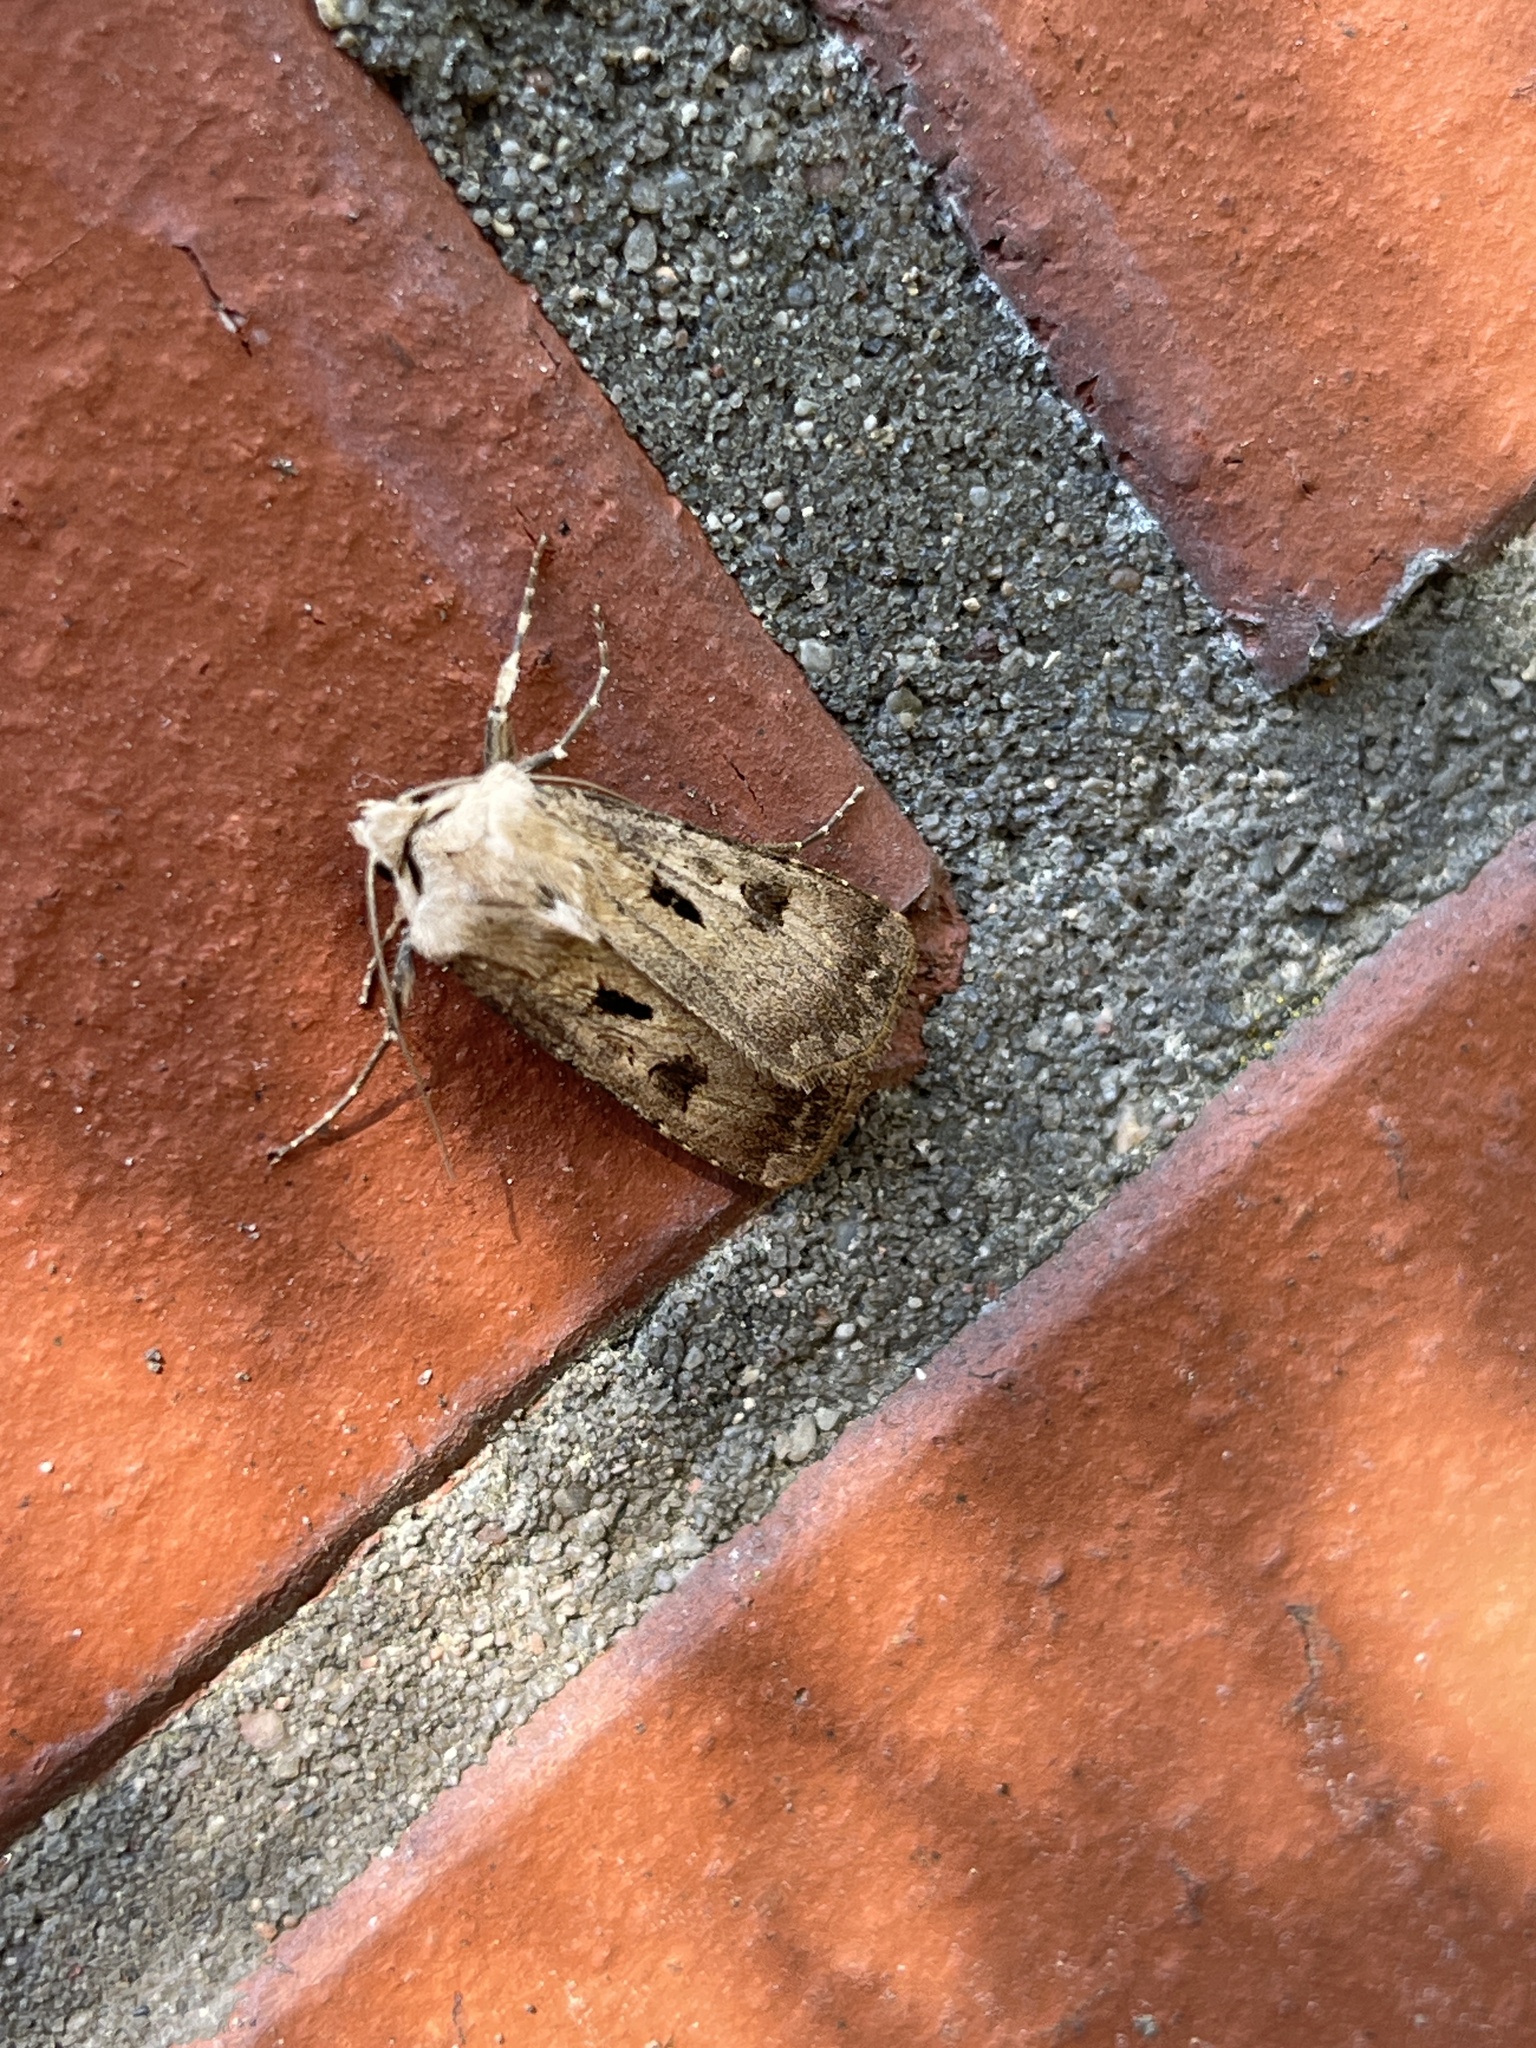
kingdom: Animalia
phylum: Arthropoda
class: Insecta
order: Lepidoptera
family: Noctuidae
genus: Agrotis
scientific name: Agrotis exclamationis
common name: Heart and dart
